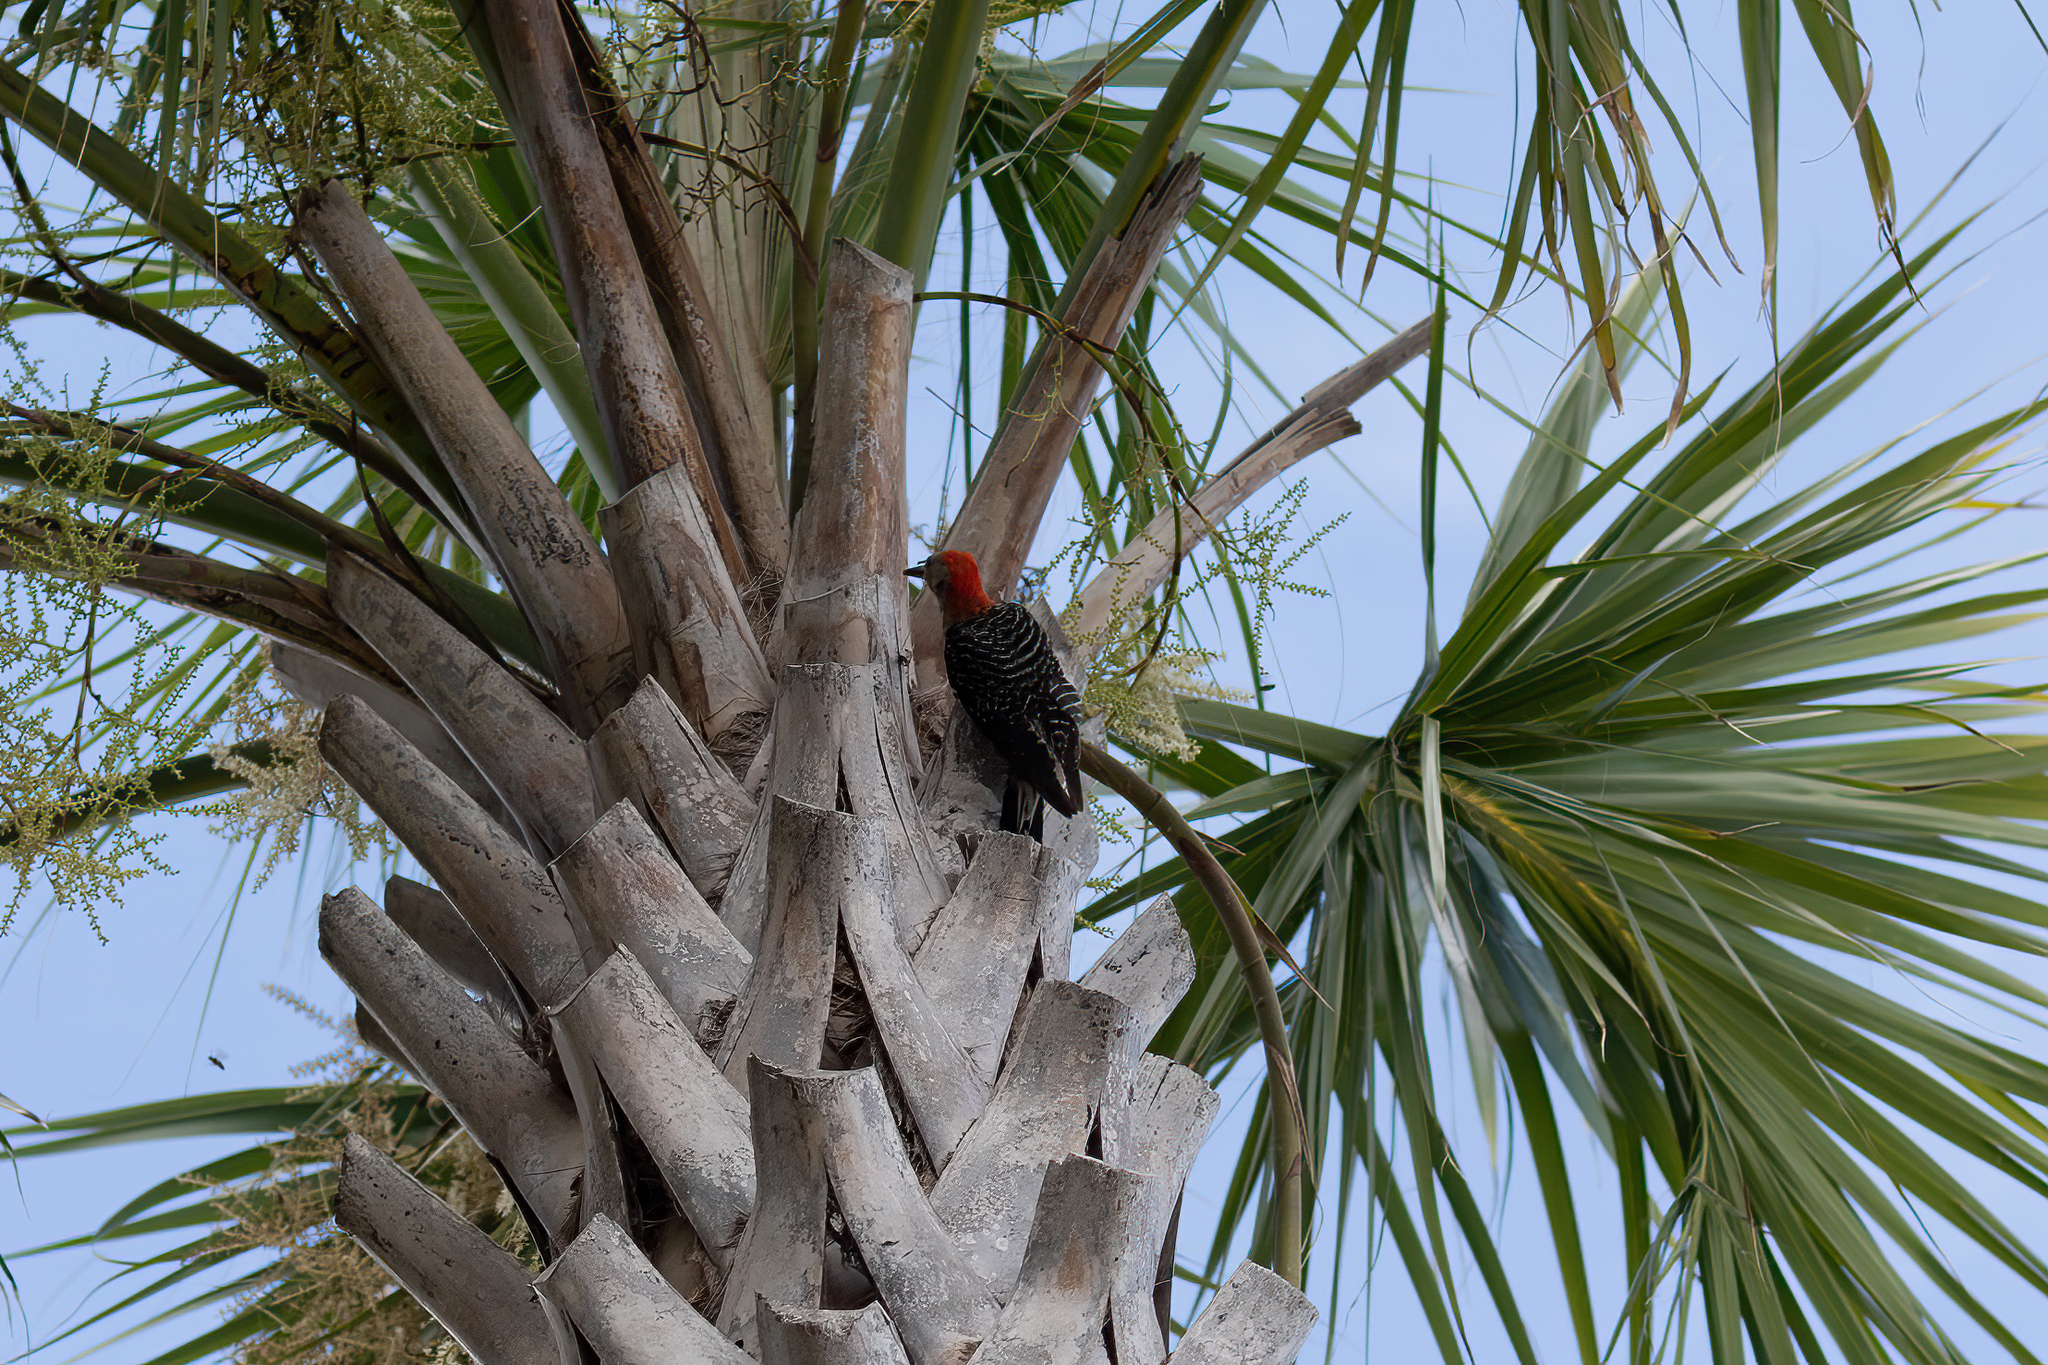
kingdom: Animalia
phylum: Chordata
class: Aves
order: Piciformes
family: Picidae
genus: Melanerpes
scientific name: Melanerpes carolinus
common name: Red-bellied woodpecker
